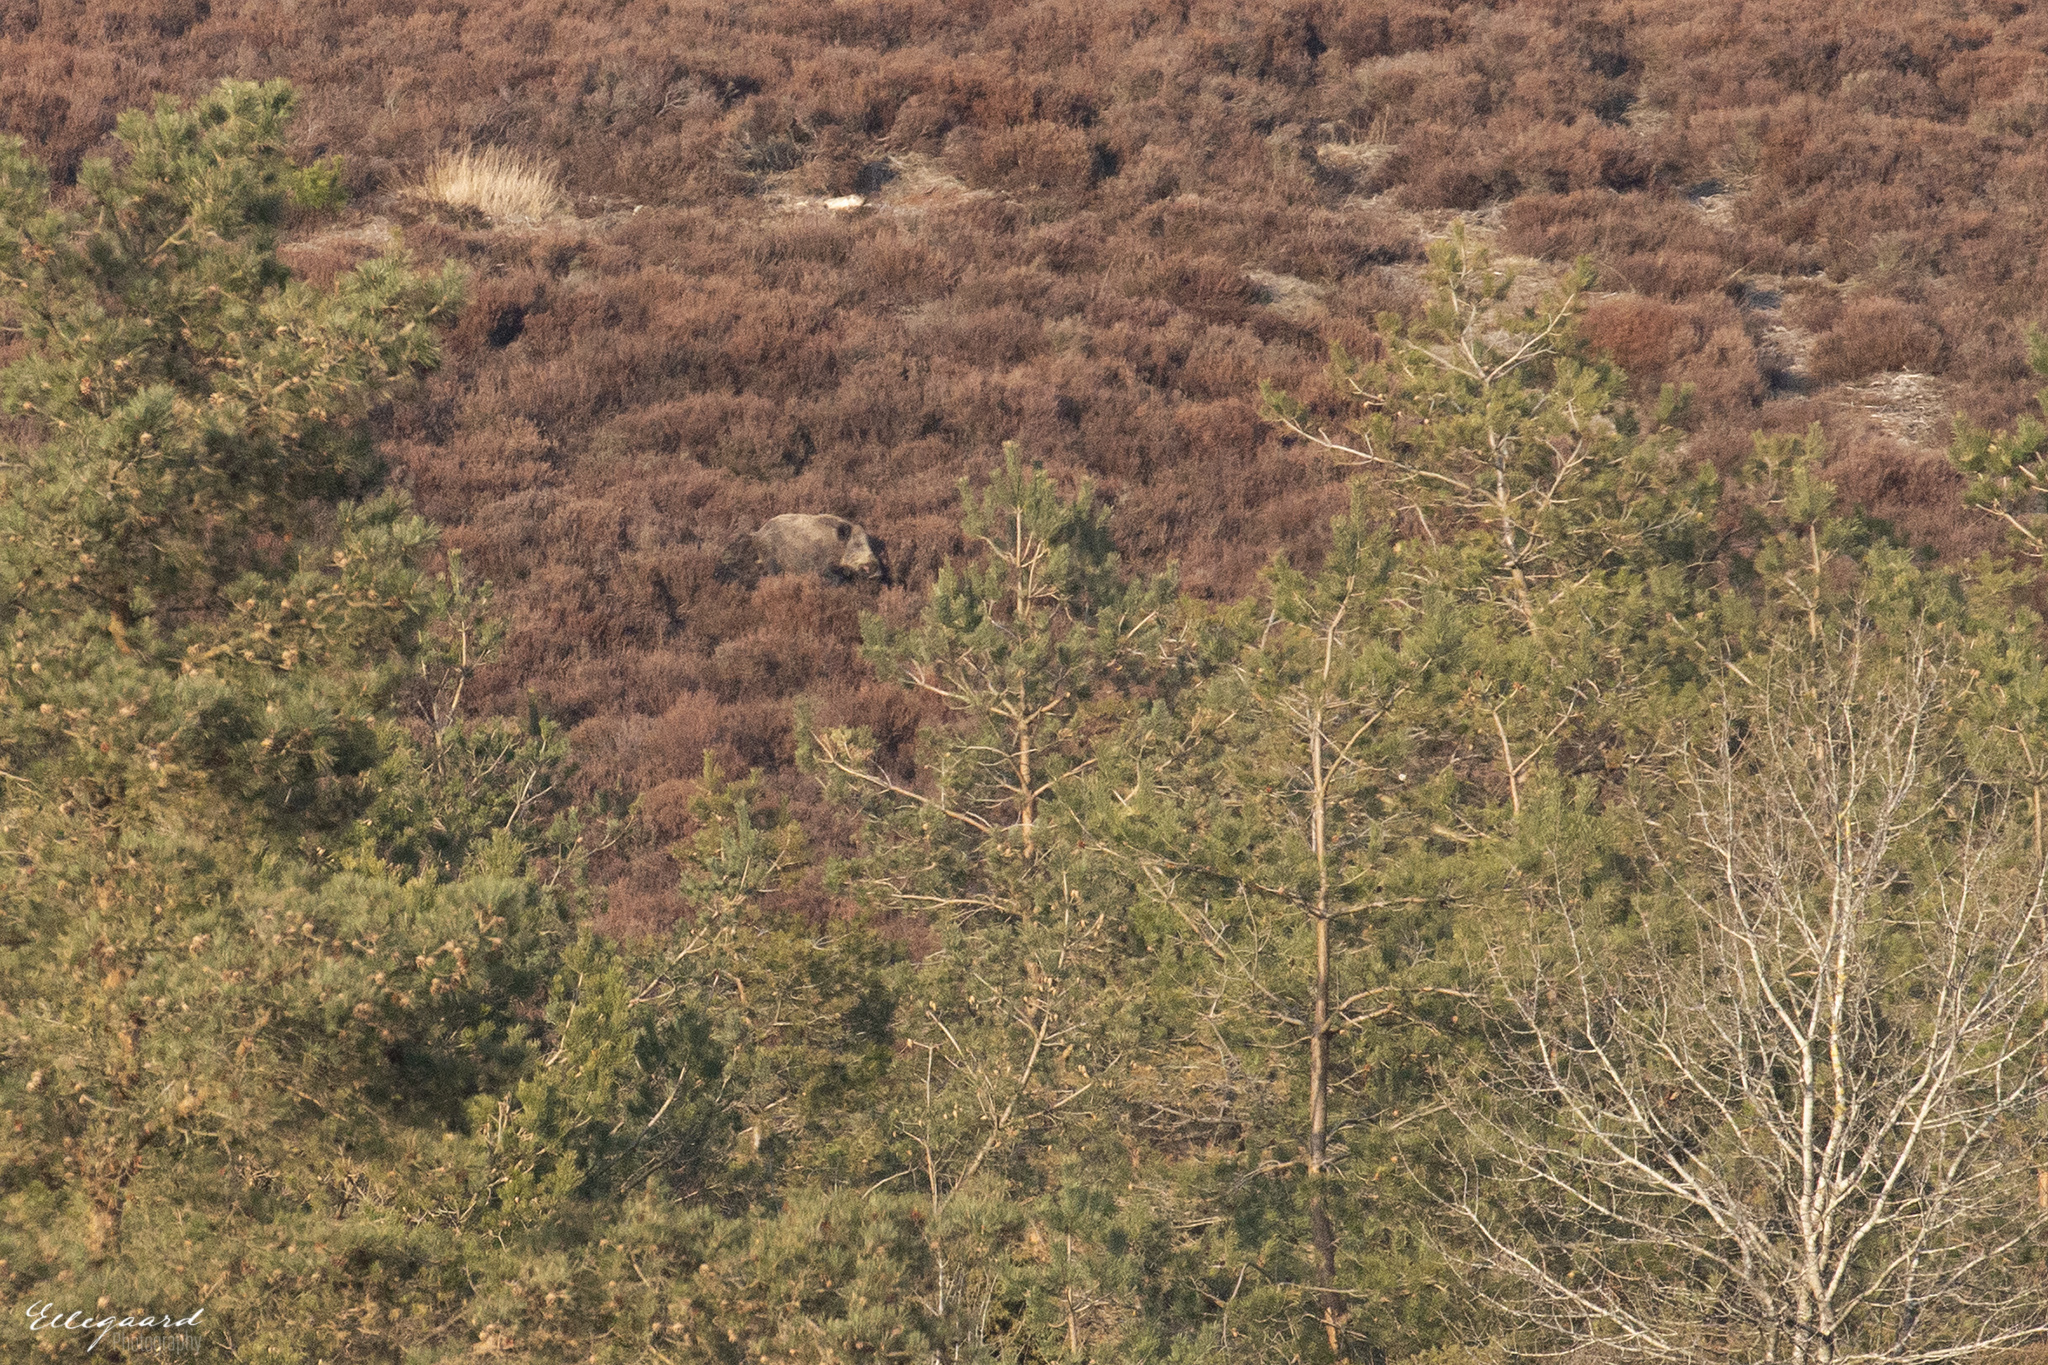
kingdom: Animalia
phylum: Chordata
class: Mammalia
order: Artiodactyla
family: Suidae
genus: Sus
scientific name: Sus scrofa
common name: Wild boar
